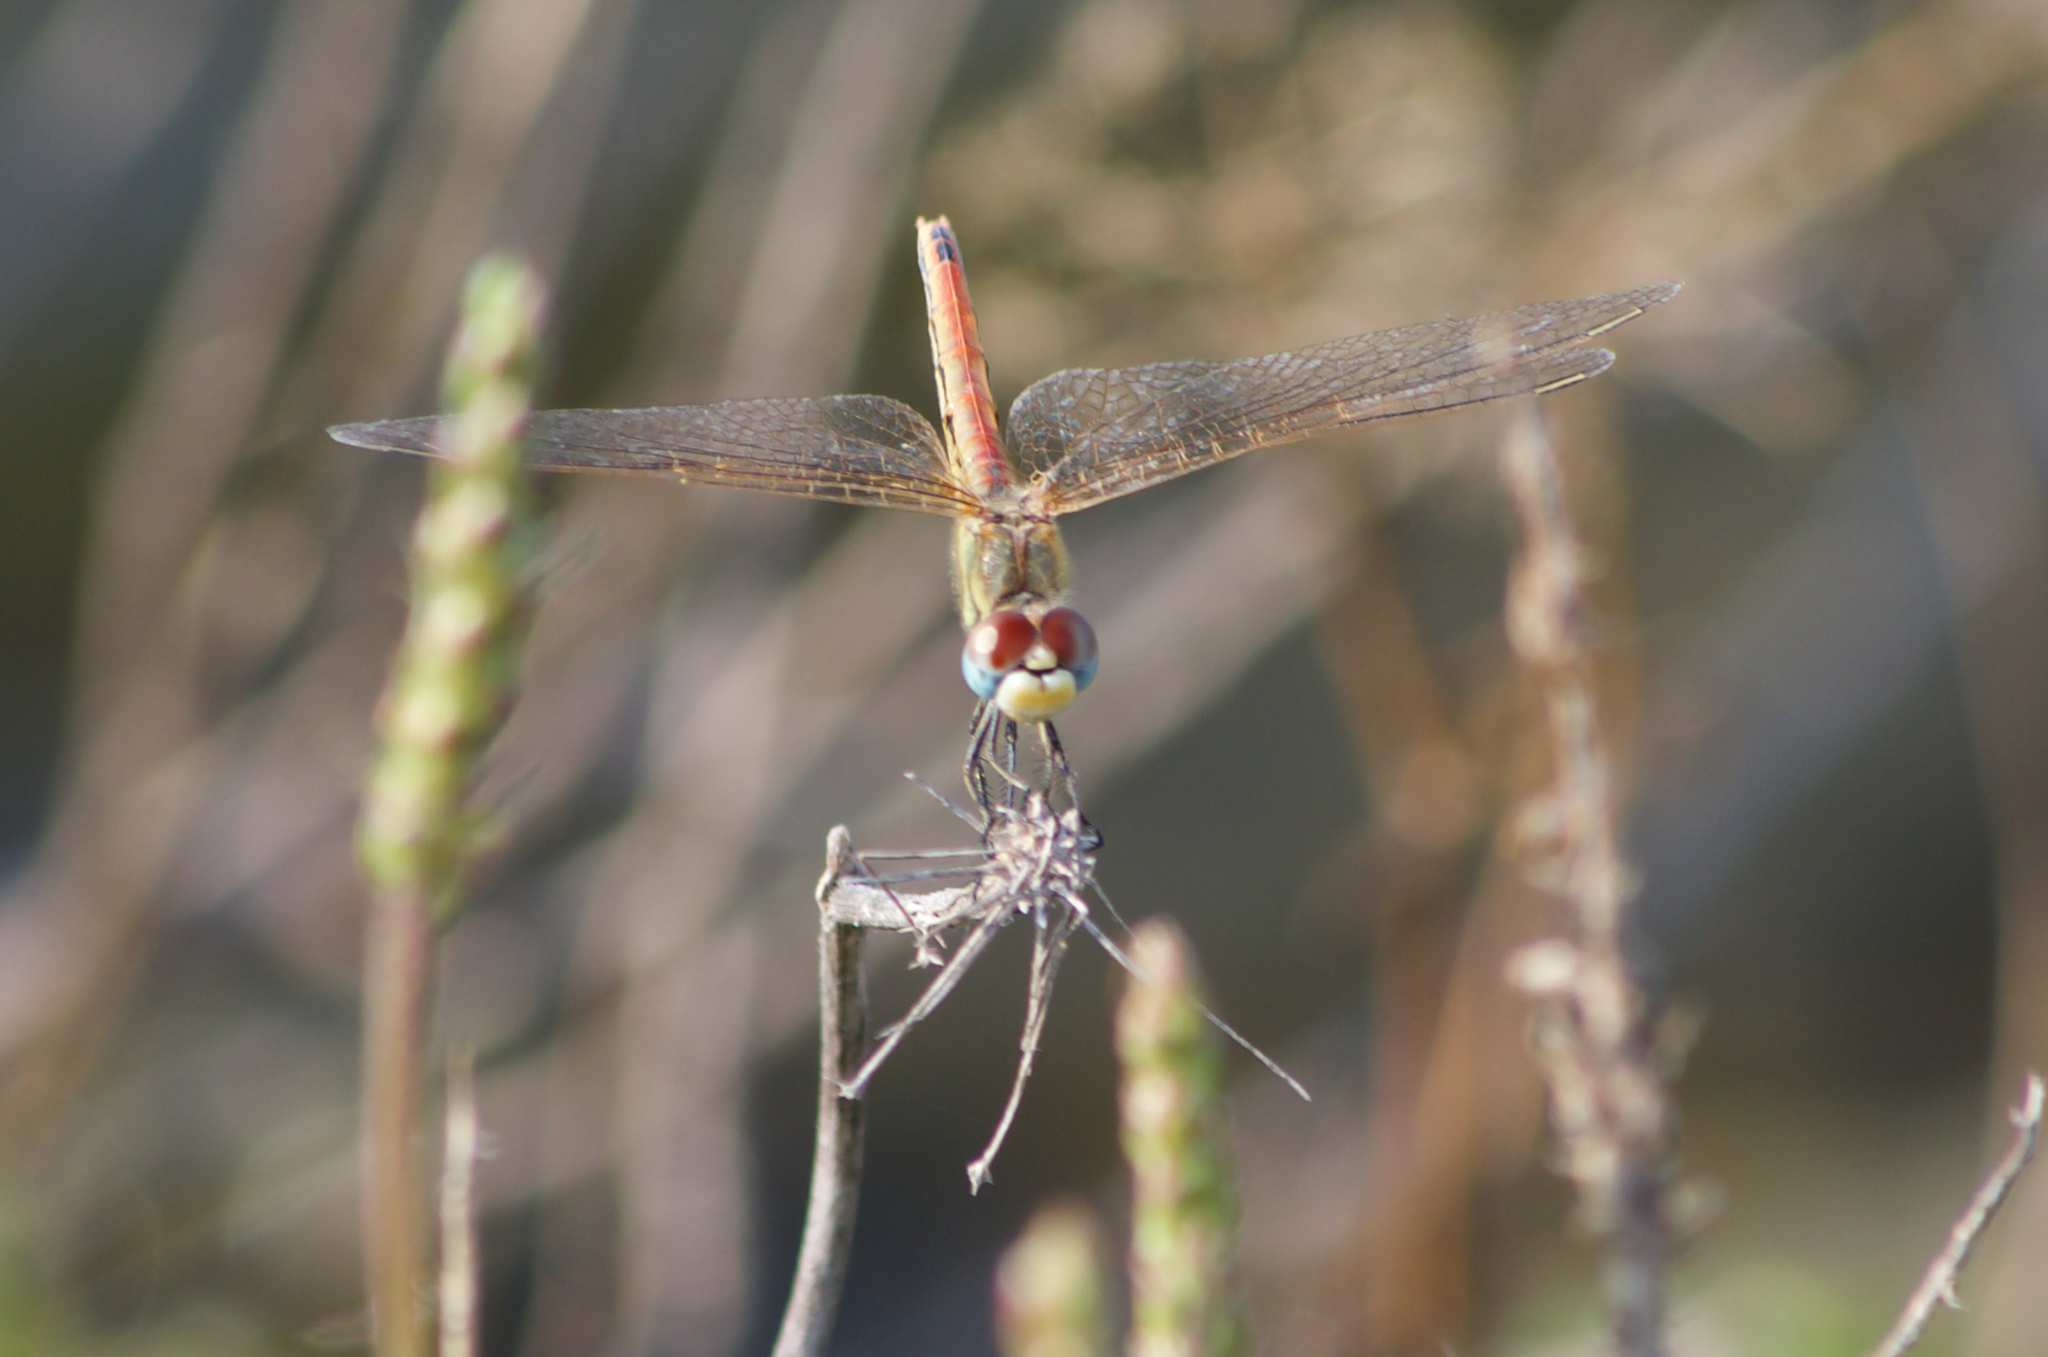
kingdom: Animalia
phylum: Arthropoda
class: Insecta
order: Odonata
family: Libellulidae
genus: Sympetrum
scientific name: Sympetrum fonscolombii
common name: Red-veined darter
